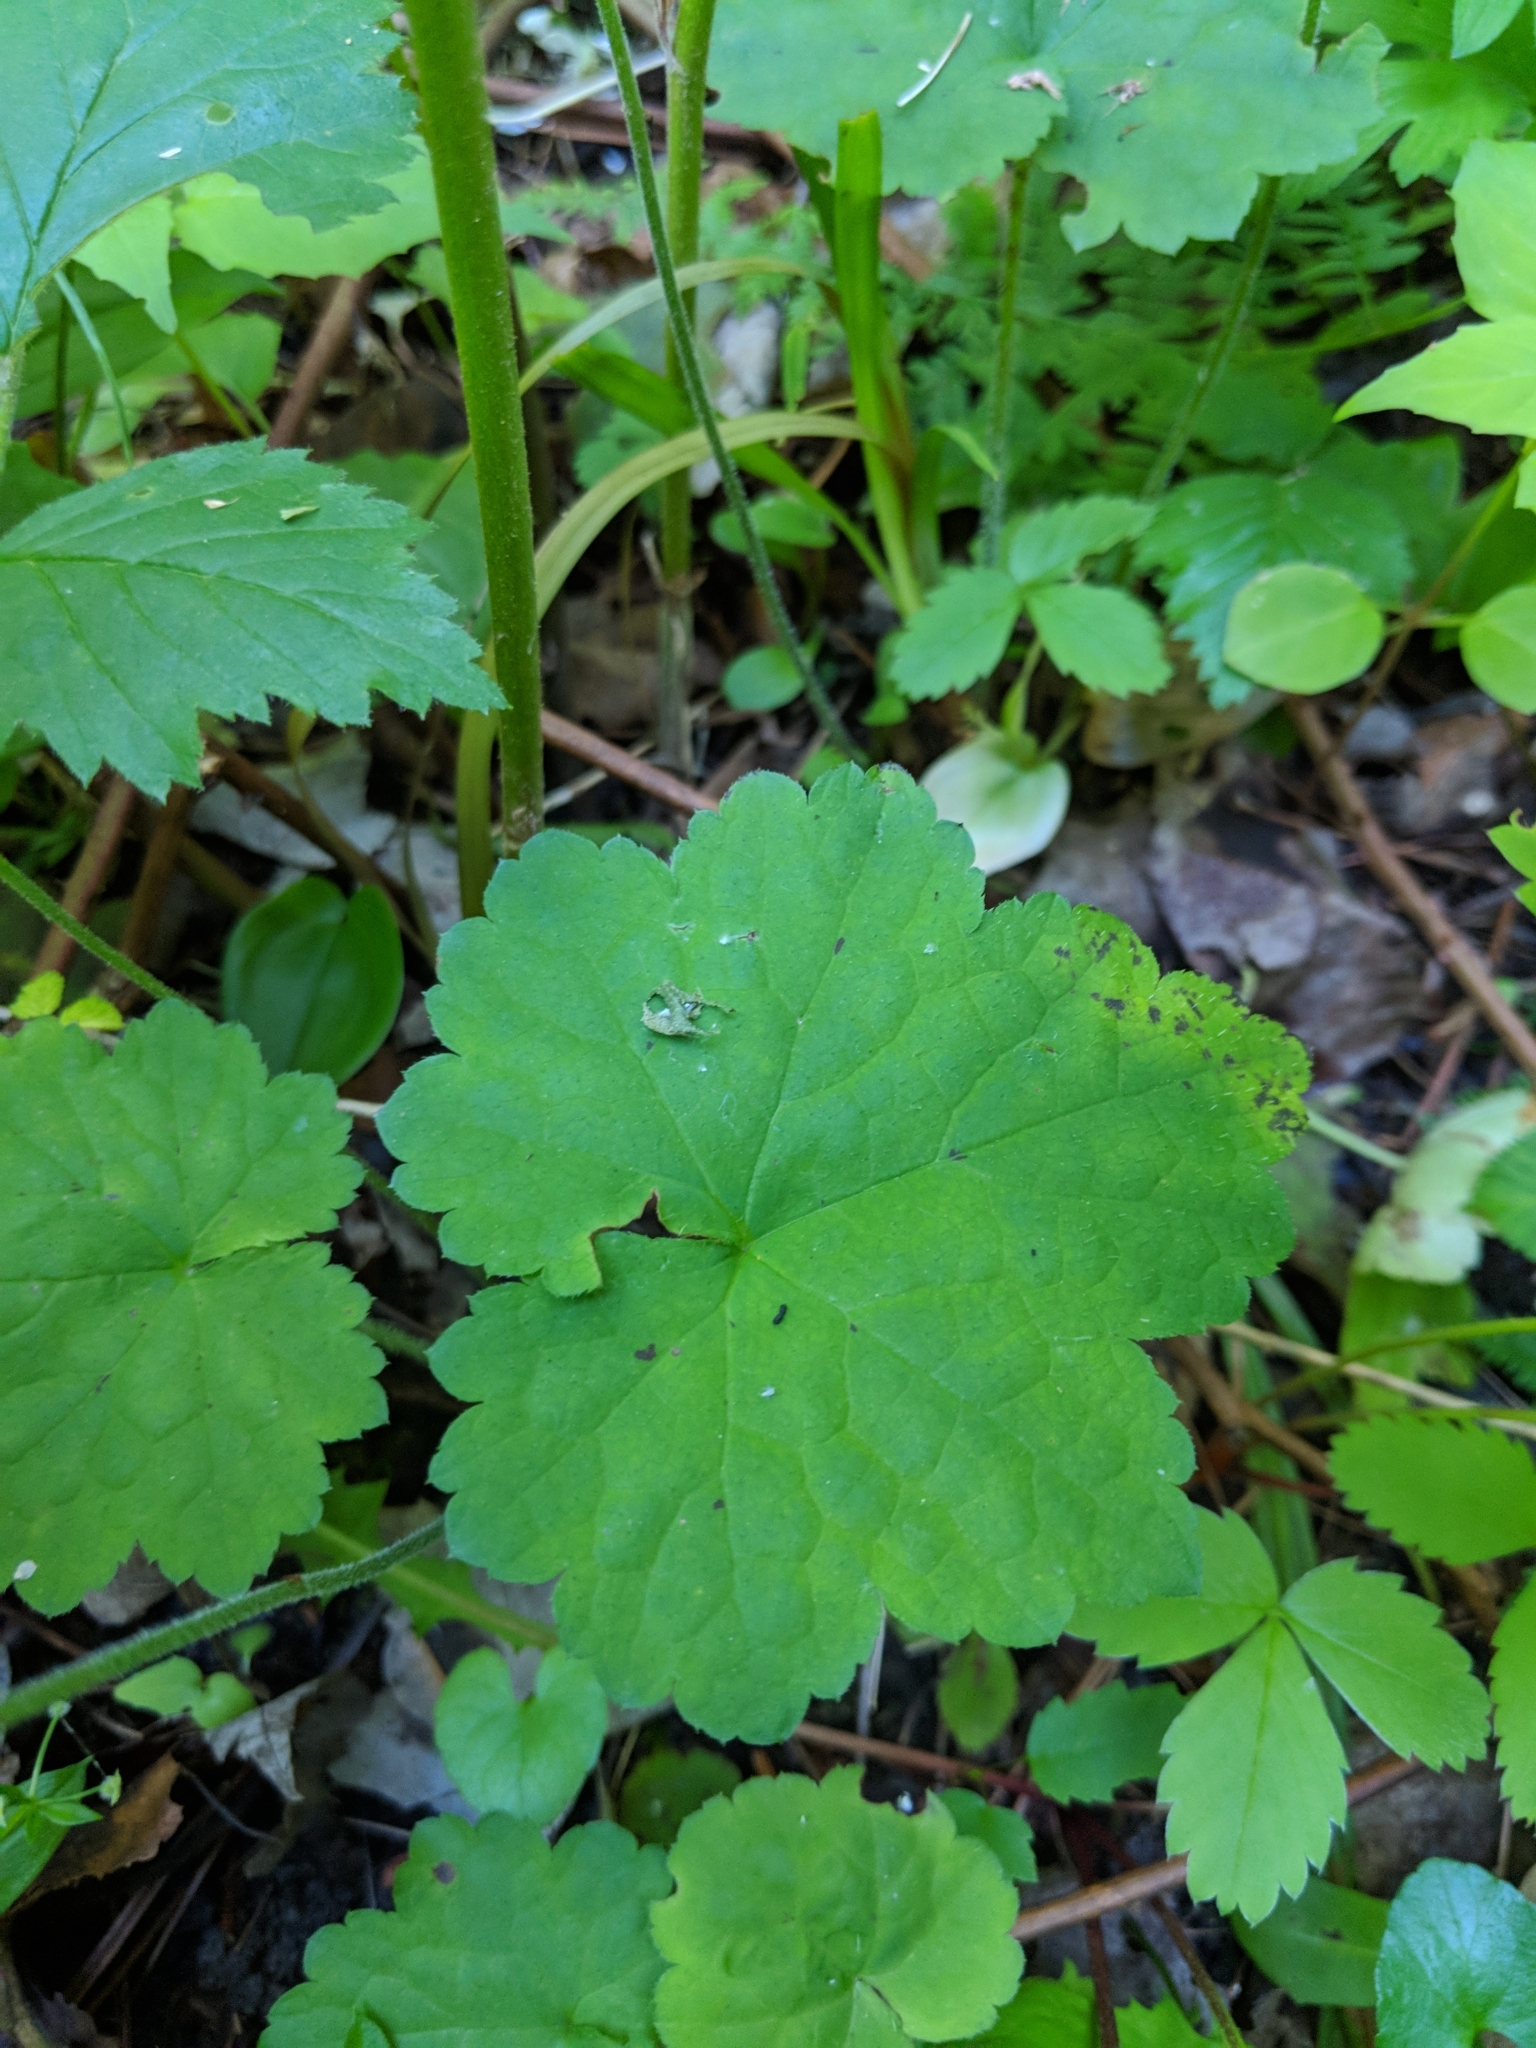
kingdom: Plantae
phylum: Tracheophyta
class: Magnoliopsida
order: Saxifragales
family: Saxifragaceae
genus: Tiarella
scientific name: Tiarella stolonifera
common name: Stoloniferous foamflower
